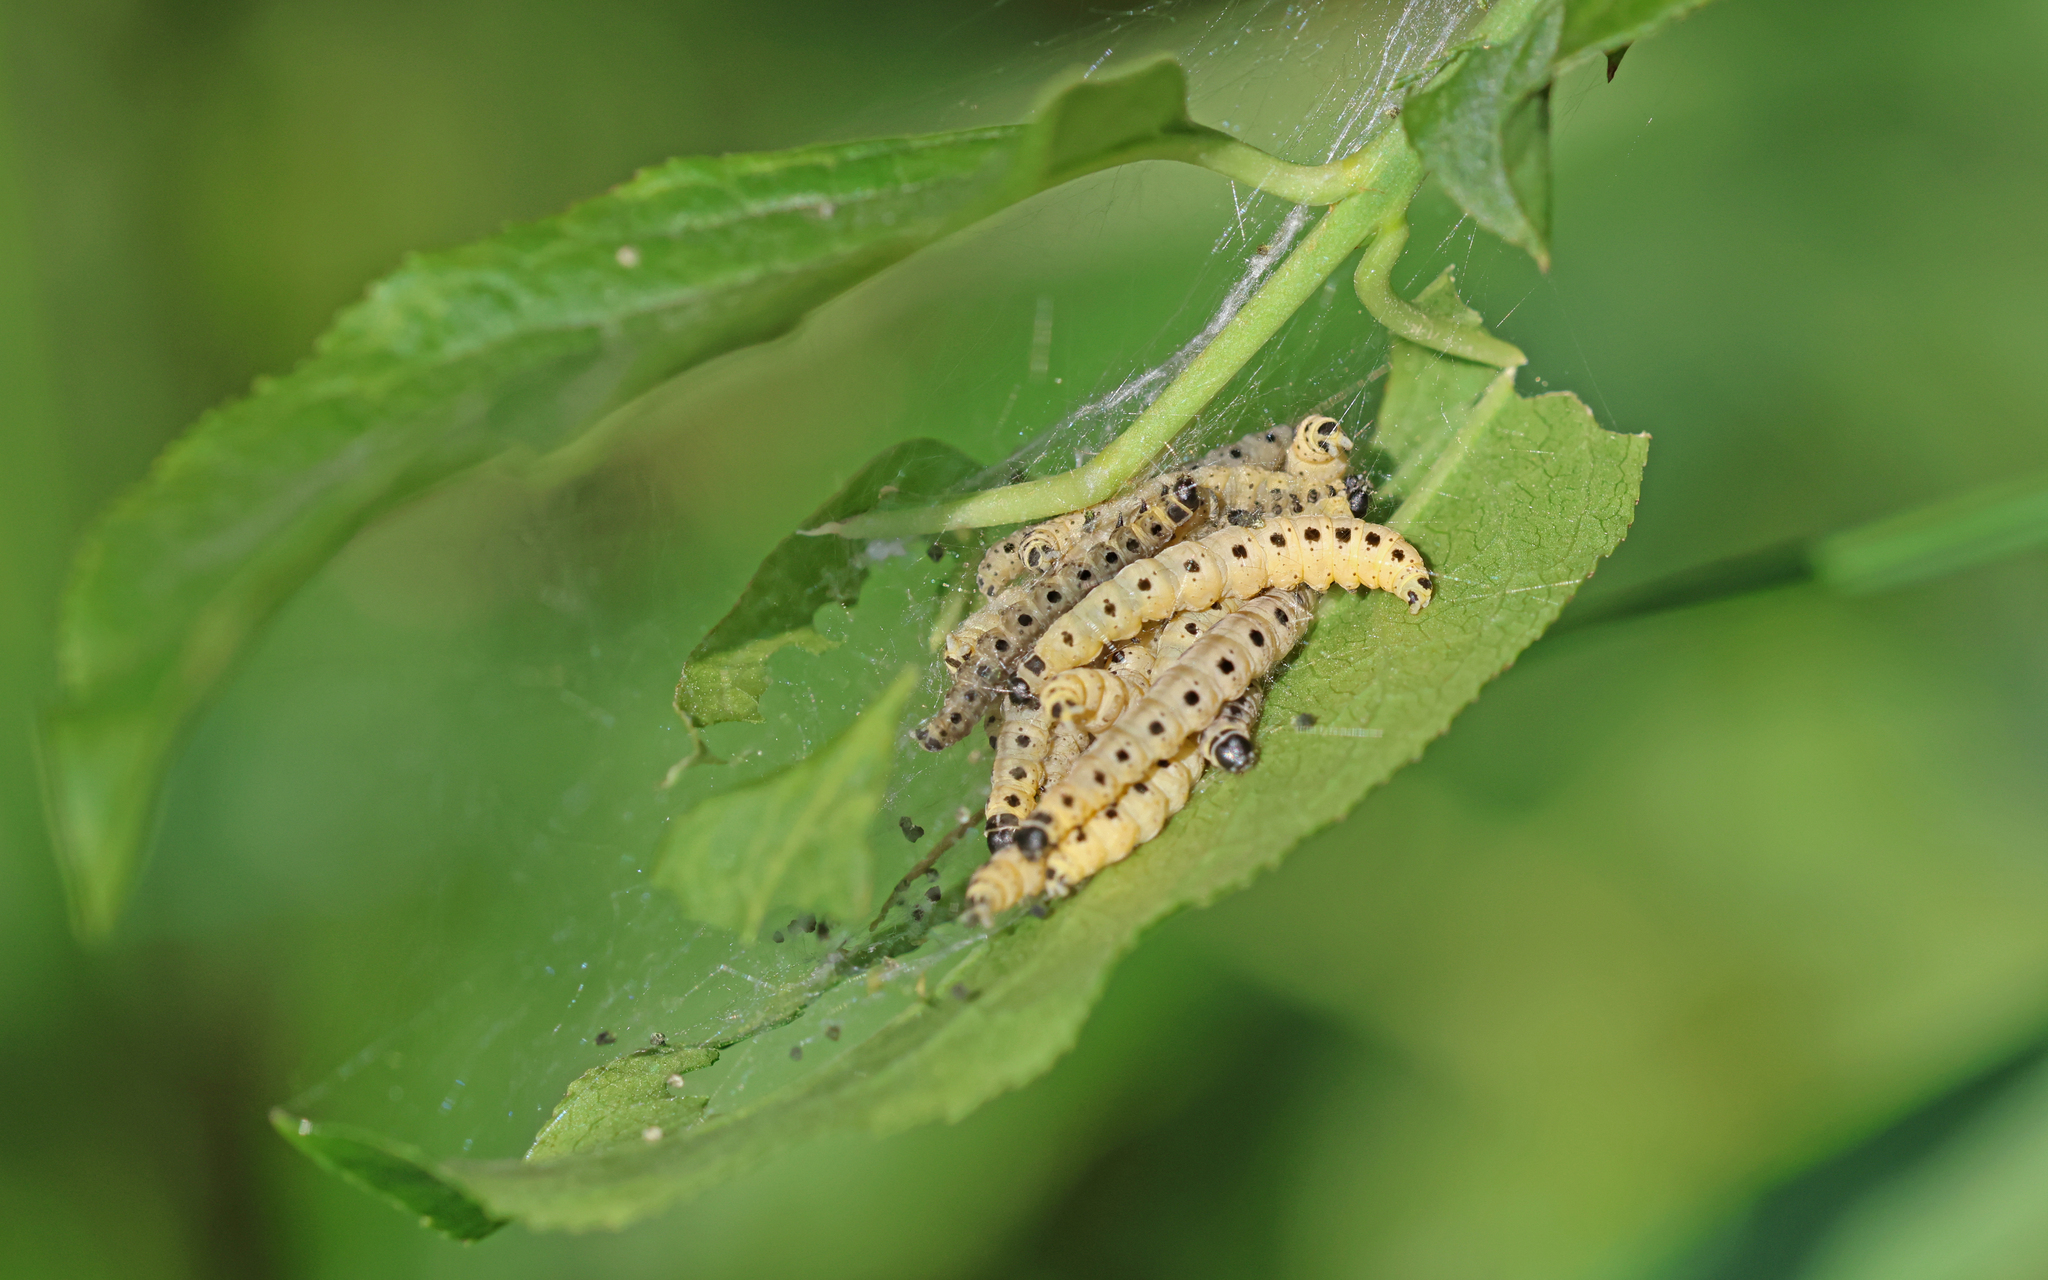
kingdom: Animalia
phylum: Arthropoda
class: Insecta
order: Lepidoptera
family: Yponomeutidae
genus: Yponomeuta
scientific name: Yponomeuta cagnagellus
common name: Spindle ermine
